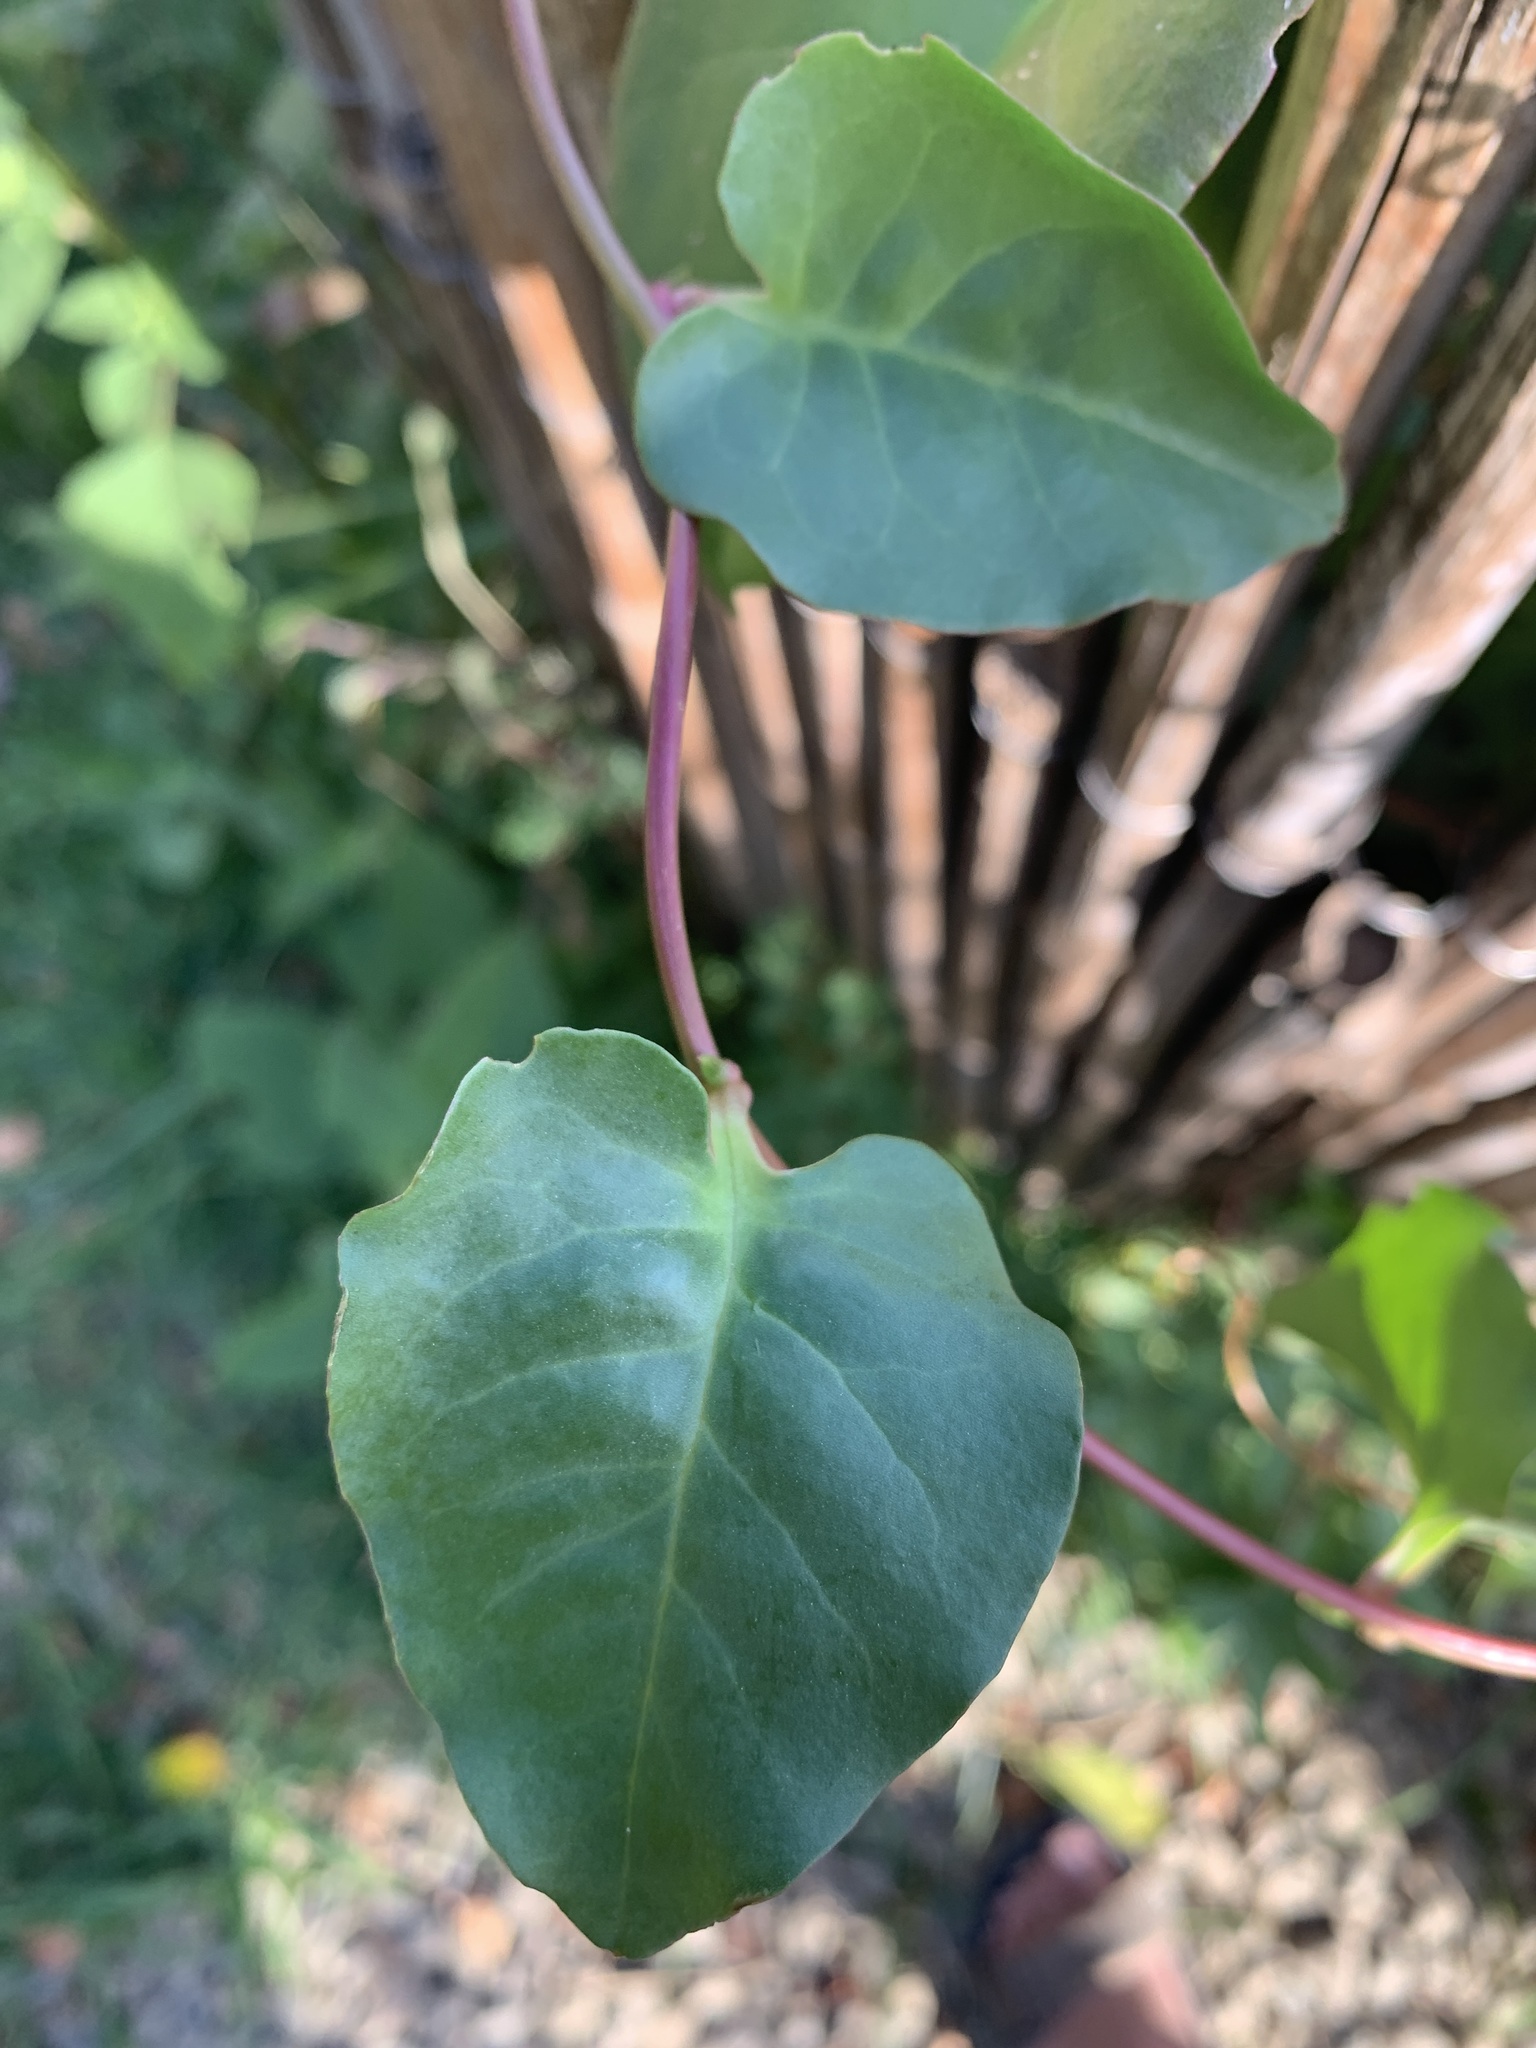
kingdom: Plantae
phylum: Tracheophyta
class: Magnoliopsida
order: Caryophyllales
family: Basellaceae
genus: Anredera
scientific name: Anredera cordifolia
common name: Heartleaf madeiravine
